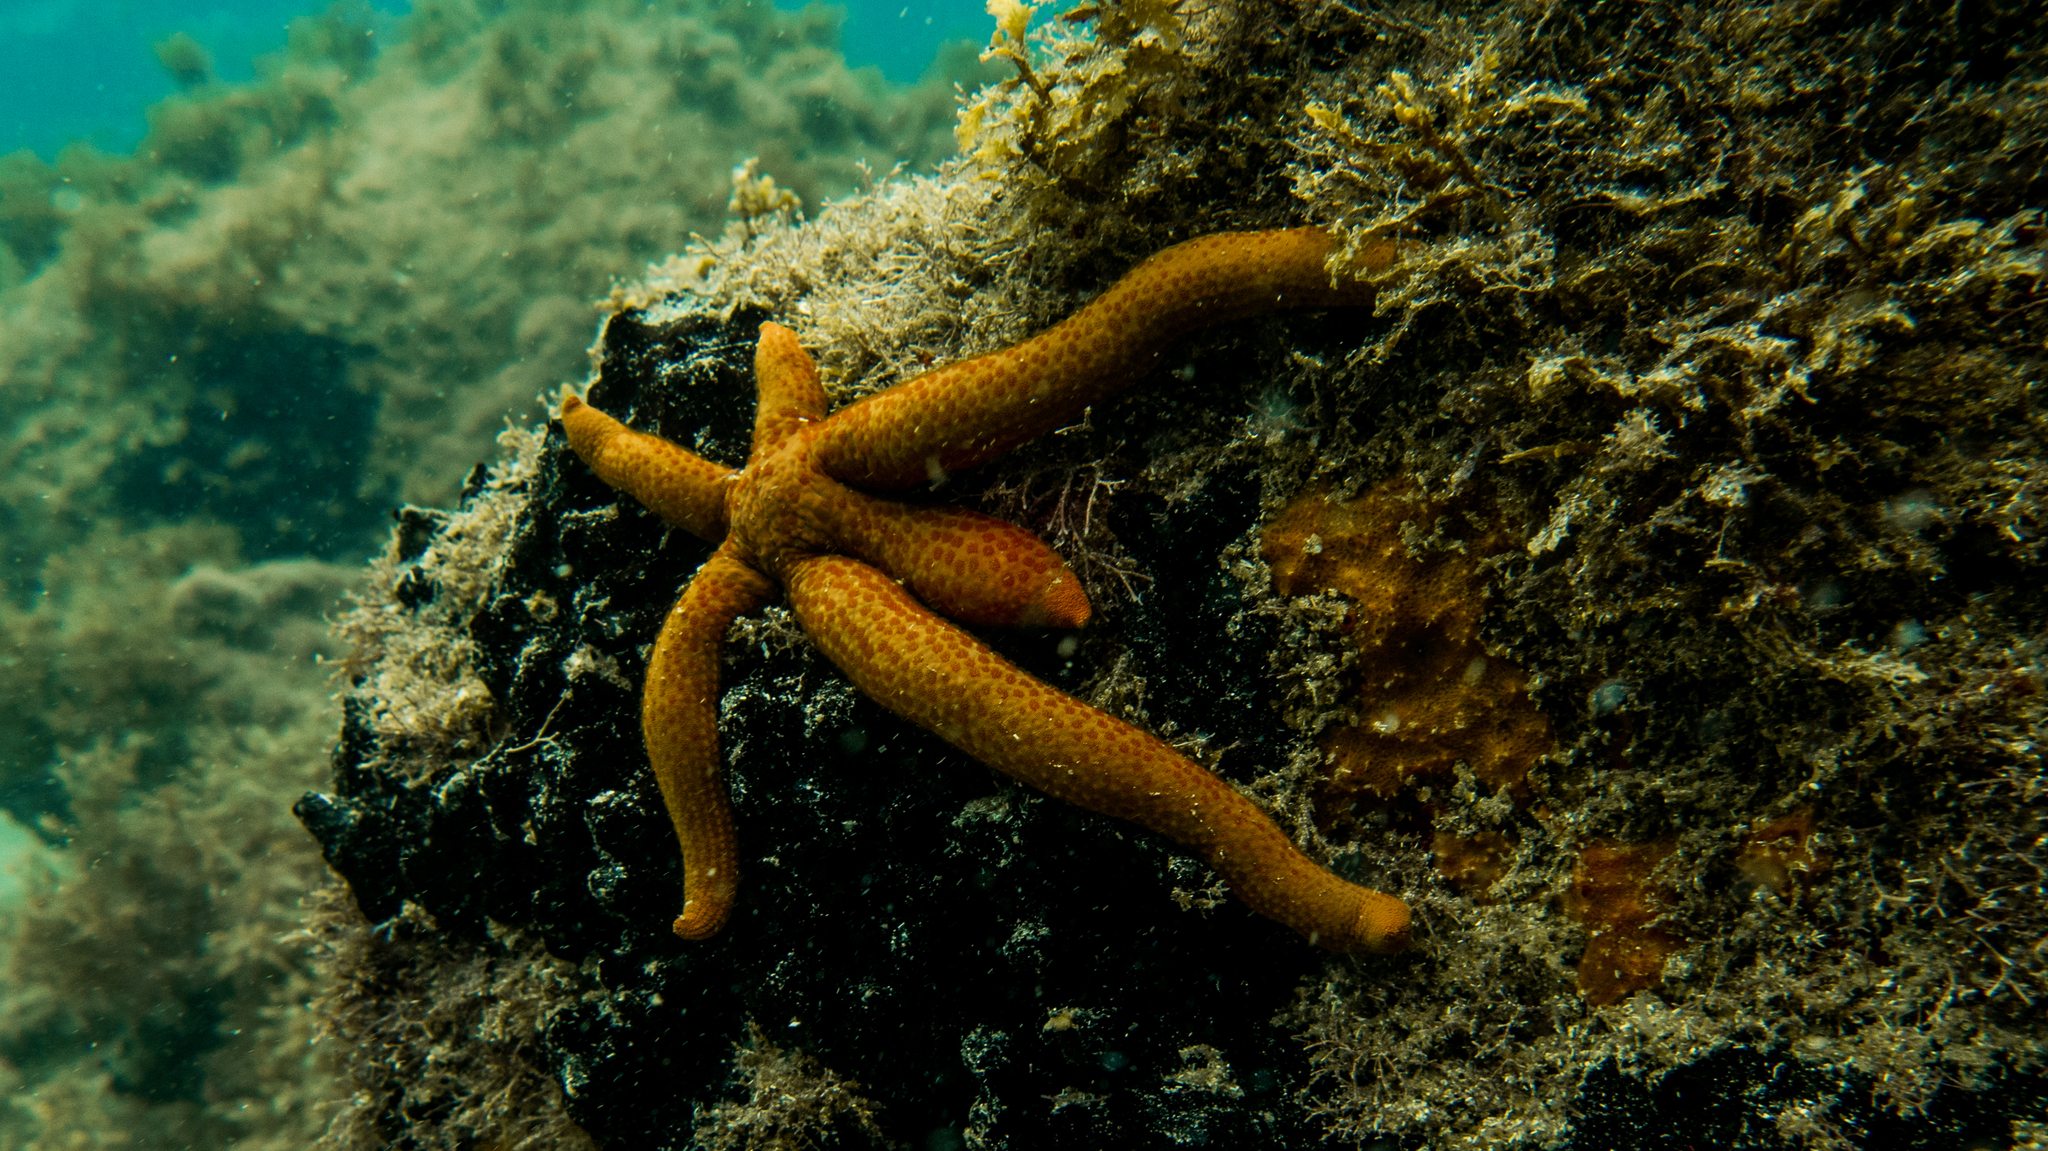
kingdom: Animalia
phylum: Echinodermata
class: Asteroidea
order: Valvatida
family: Ophidiasteridae
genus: Linckia
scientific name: Linckia guildingi
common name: Common comet star
